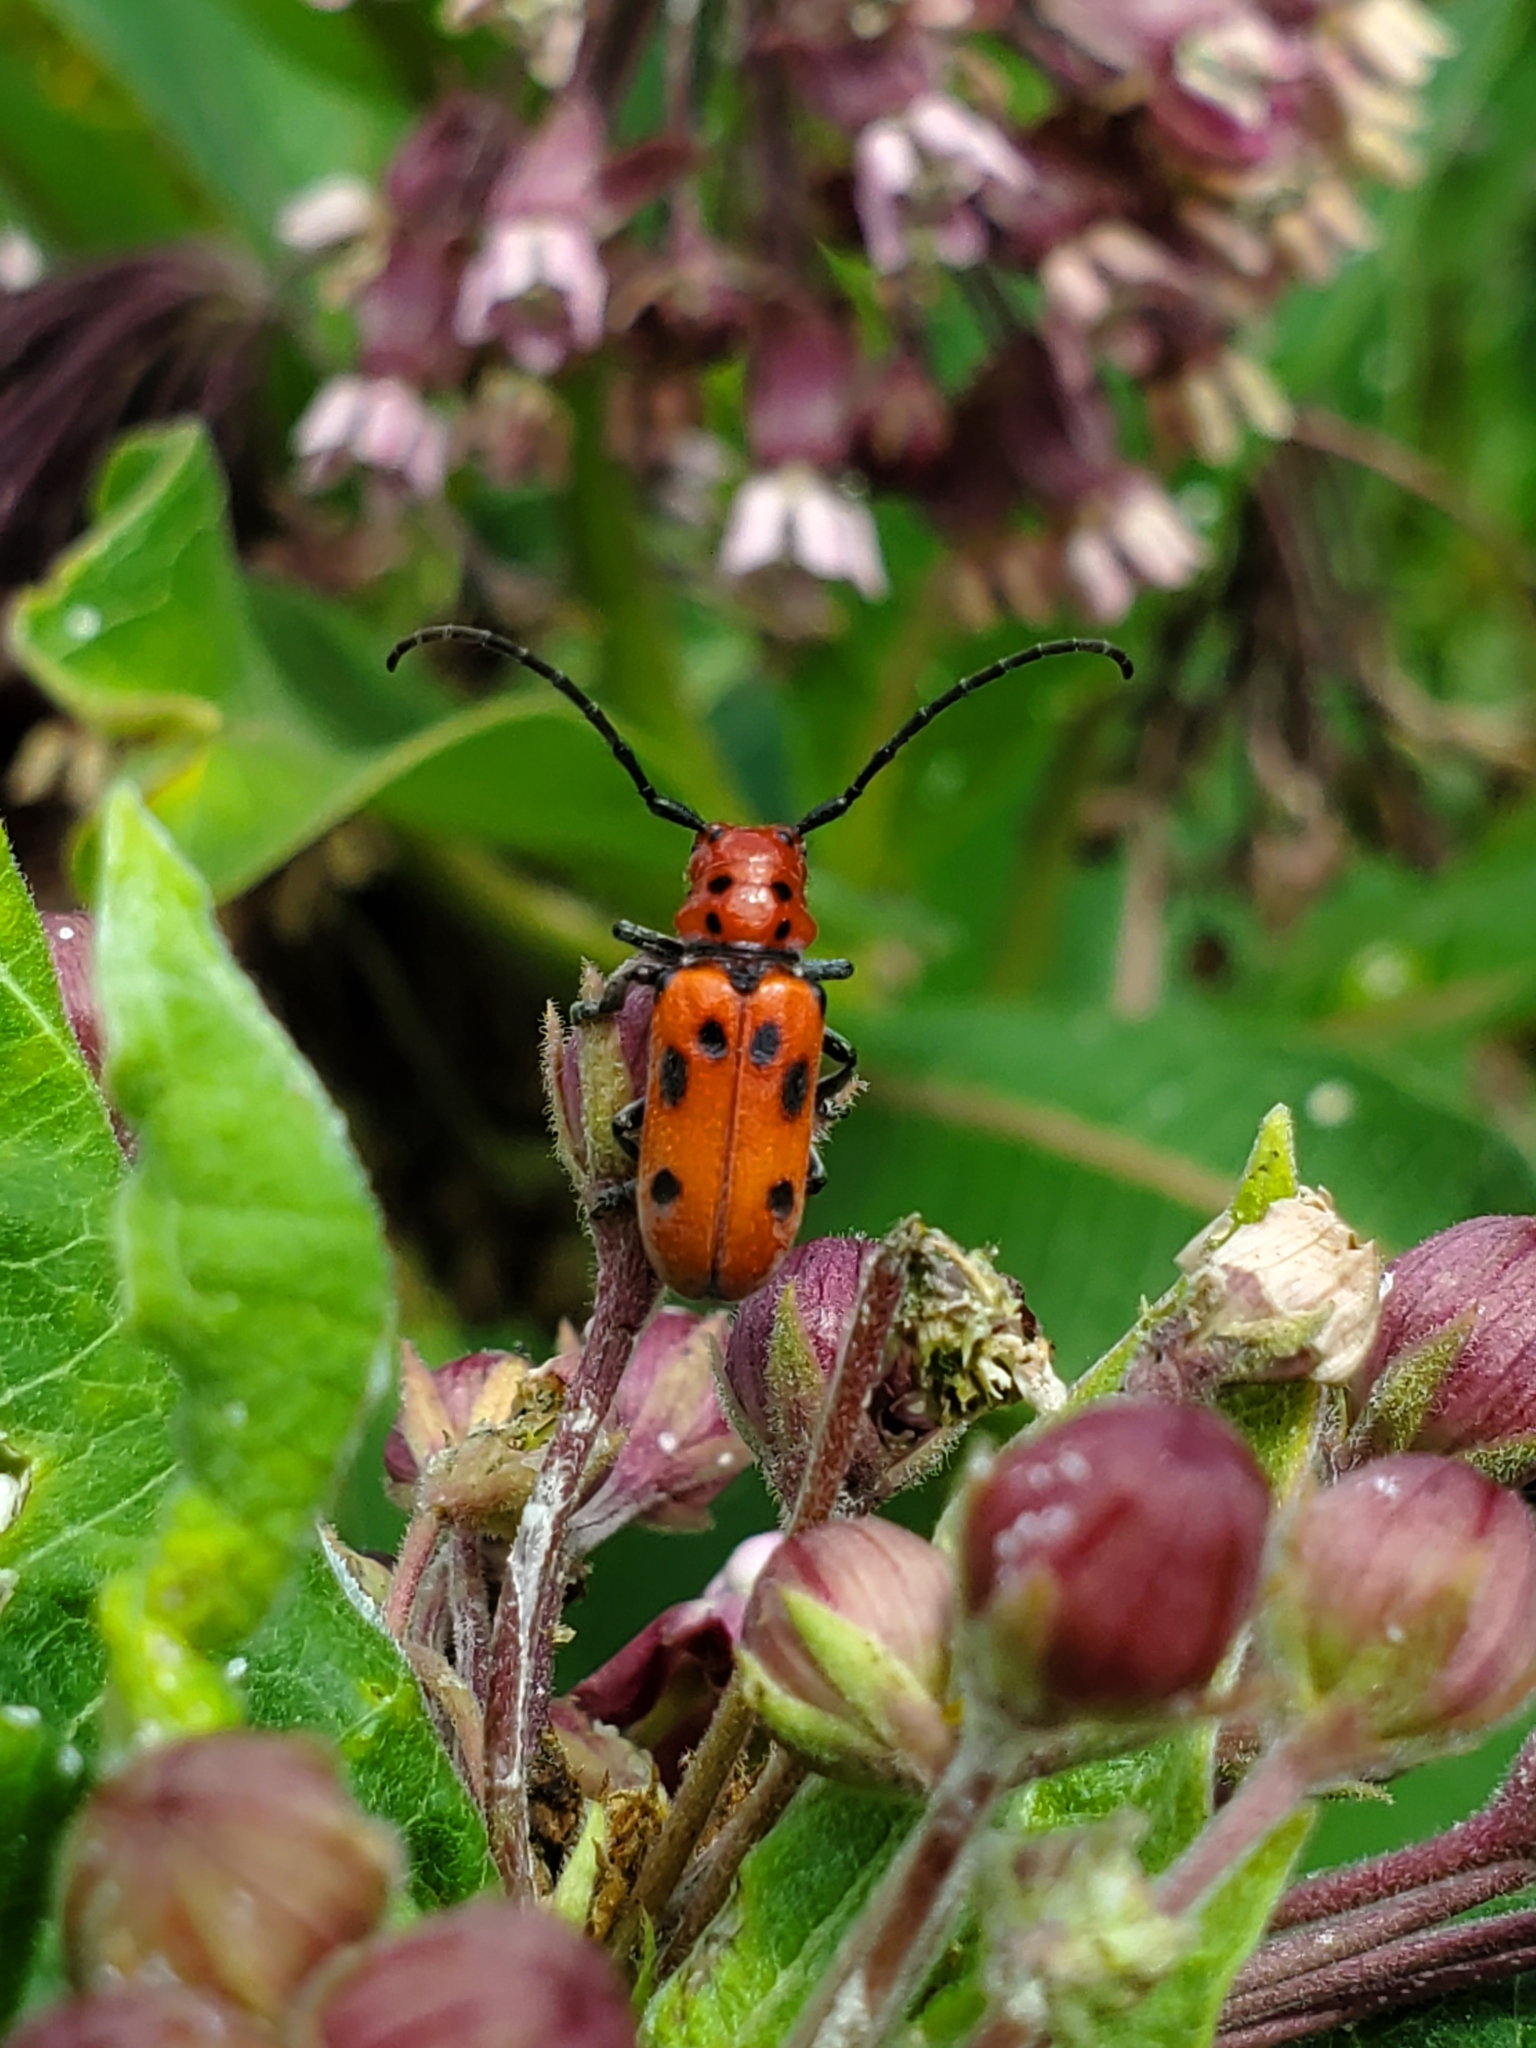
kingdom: Animalia
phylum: Arthropoda
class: Insecta
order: Coleoptera
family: Cerambycidae
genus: Tetraopes
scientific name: Tetraopes tetrophthalmus
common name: Red milkweed beetle
